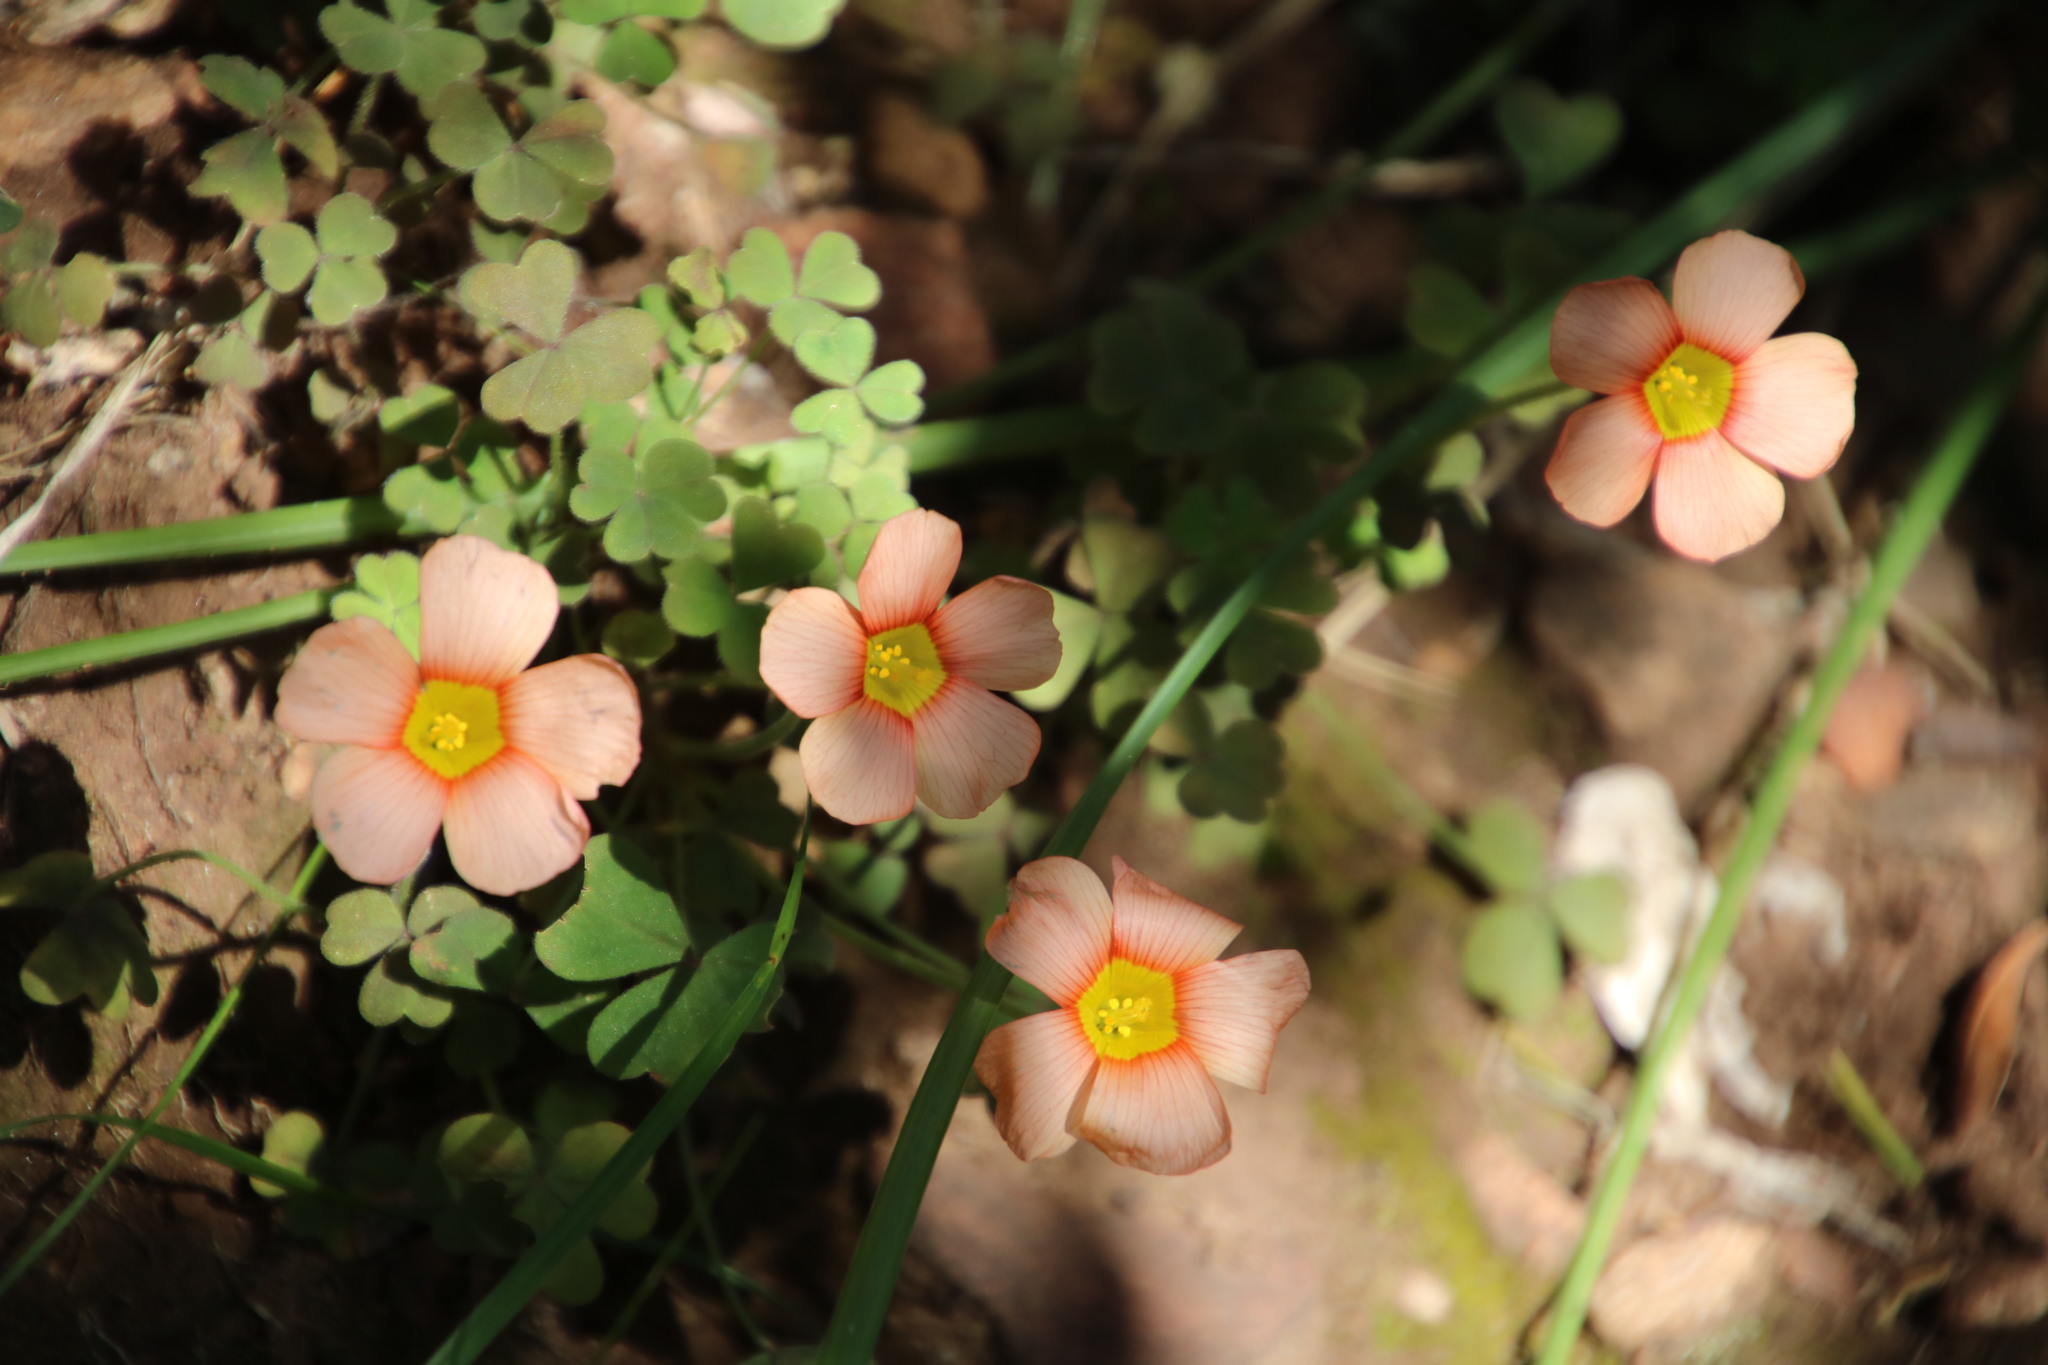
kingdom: Plantae
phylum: Tracheophyta
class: Magnoliopsida
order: Oxalidales
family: Oxalidaceae
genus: Oxalis
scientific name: Oxalis obtusa
